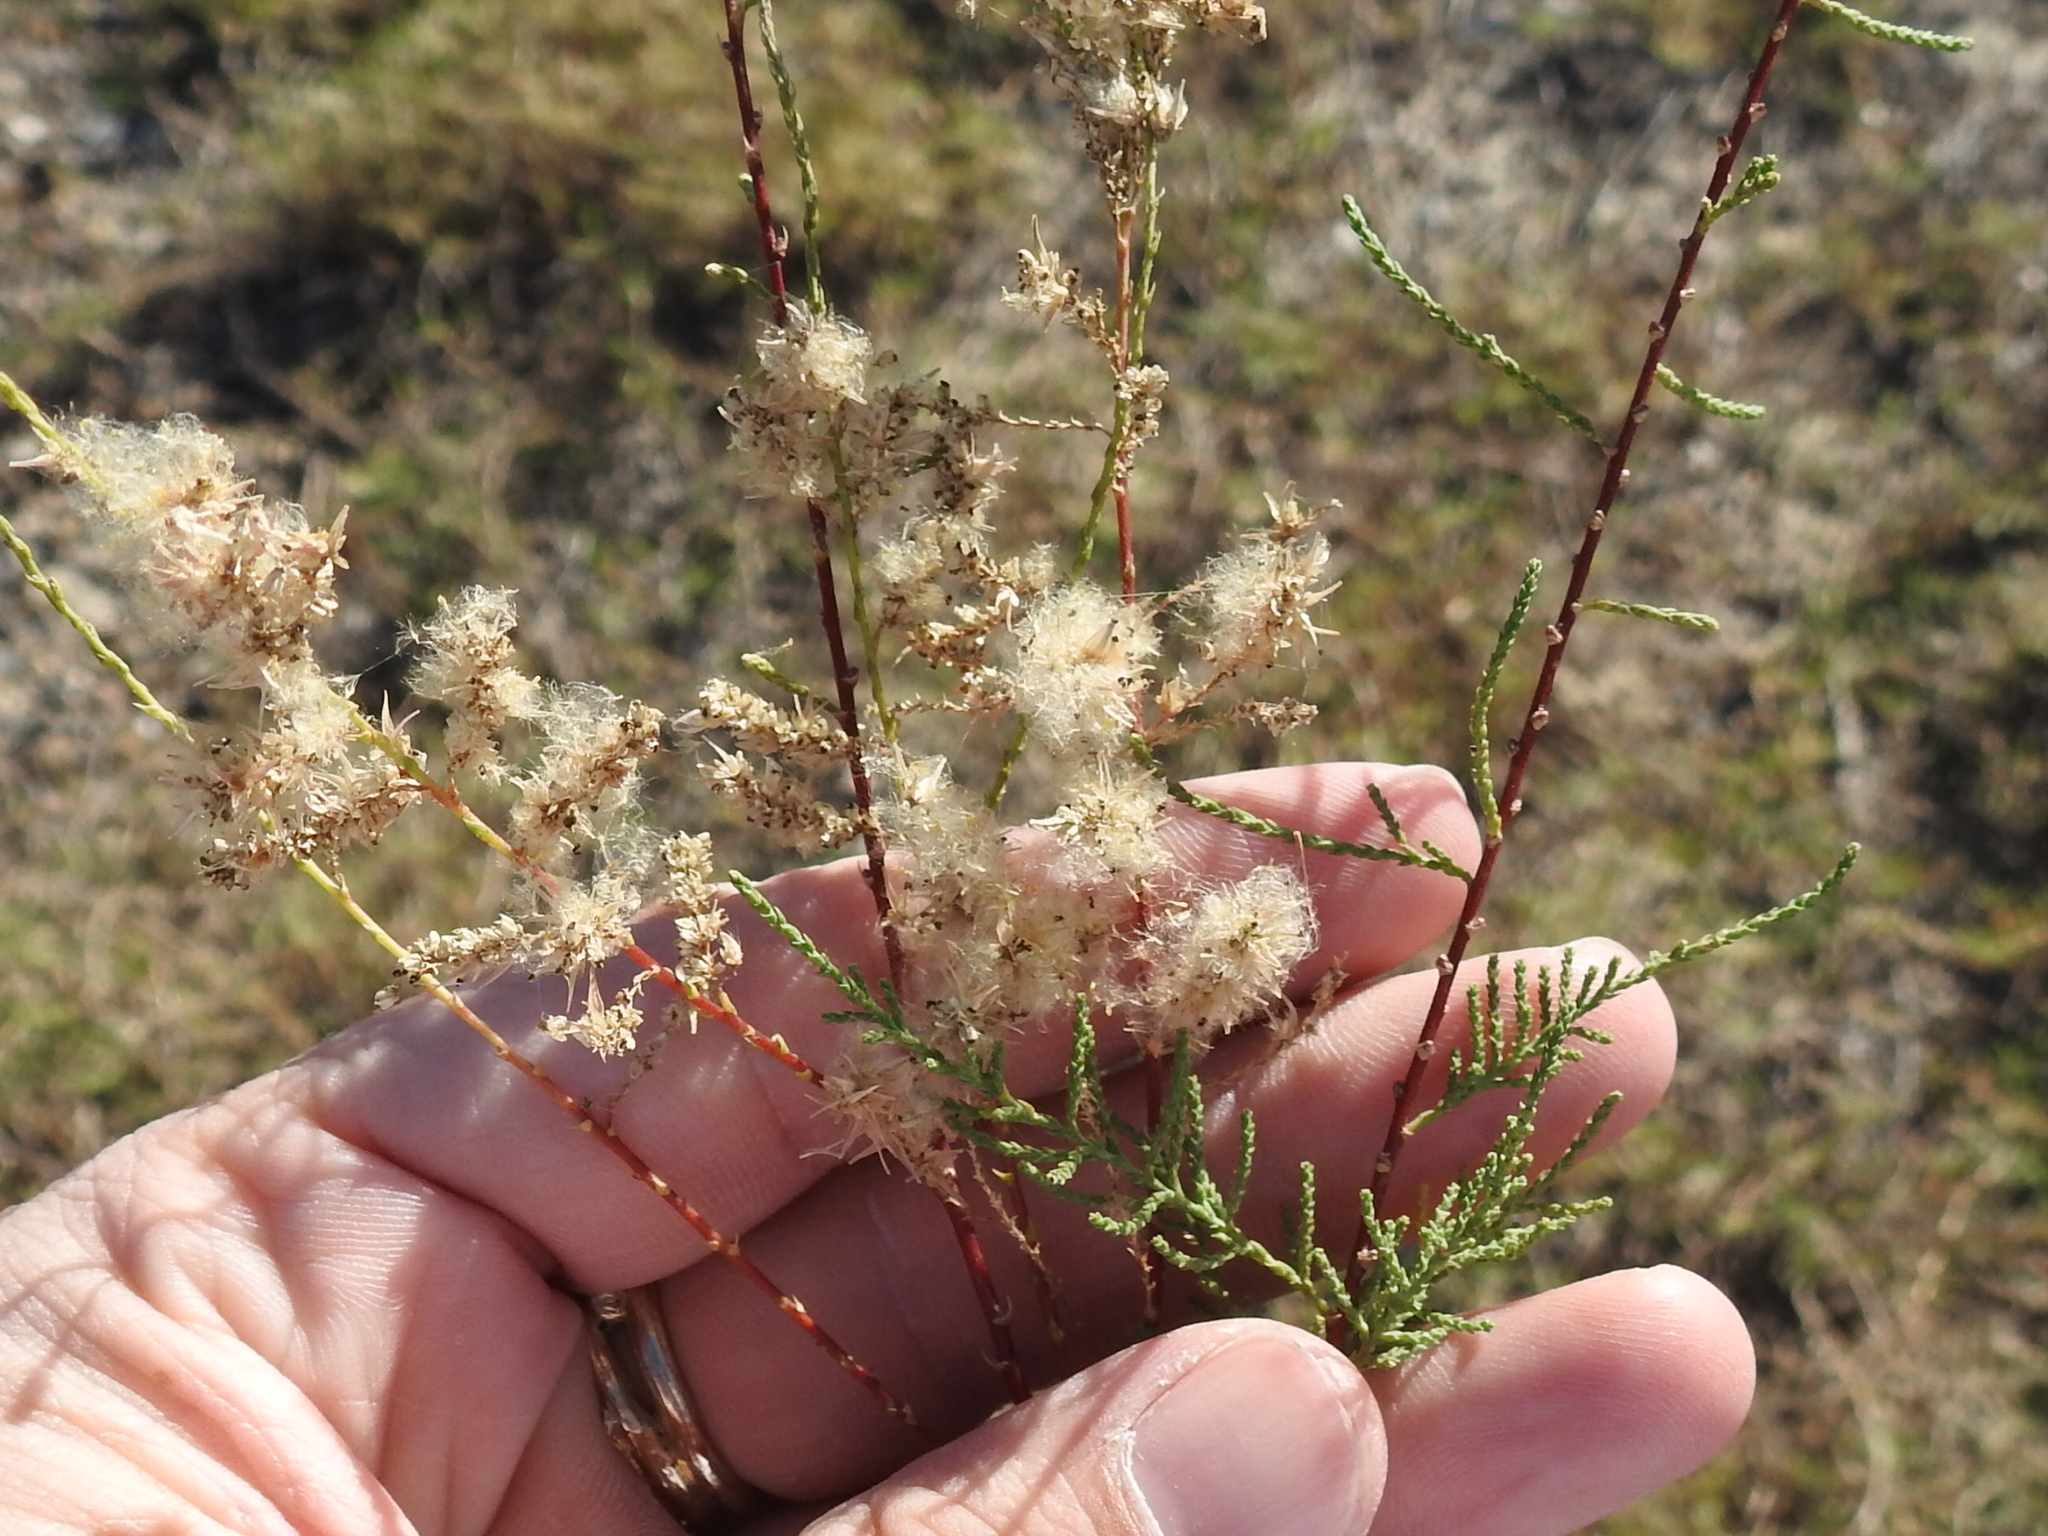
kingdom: Plantae
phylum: Tracheophyta
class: Magnoliopsida
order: Caryophyllales
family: Tamaricaceae
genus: Tamarix
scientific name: Tamarix
